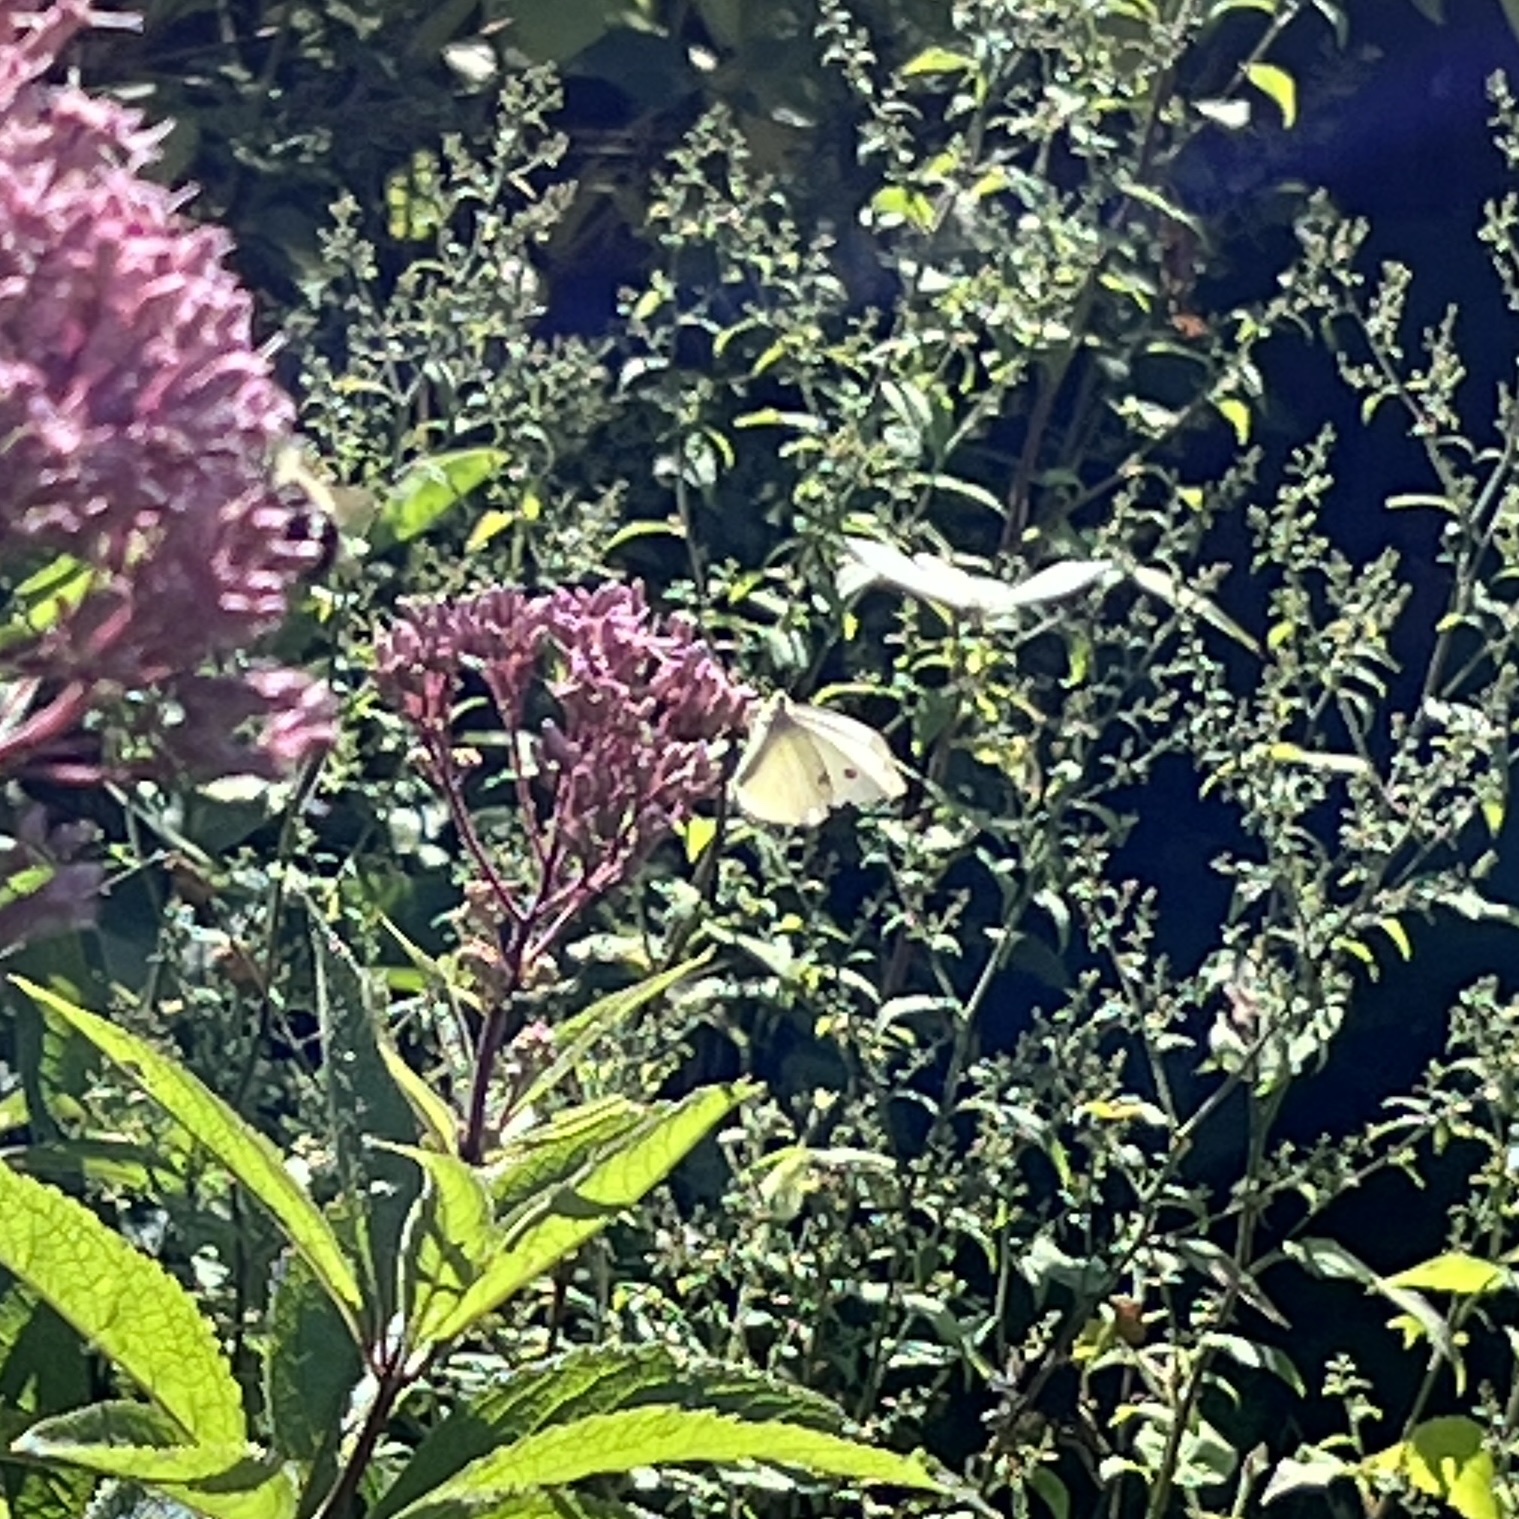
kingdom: Animalia
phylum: Arthropoda
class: Insecta
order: Lepidoptera
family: Pieridae
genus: Pieris
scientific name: Pieris rapae
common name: Small white
